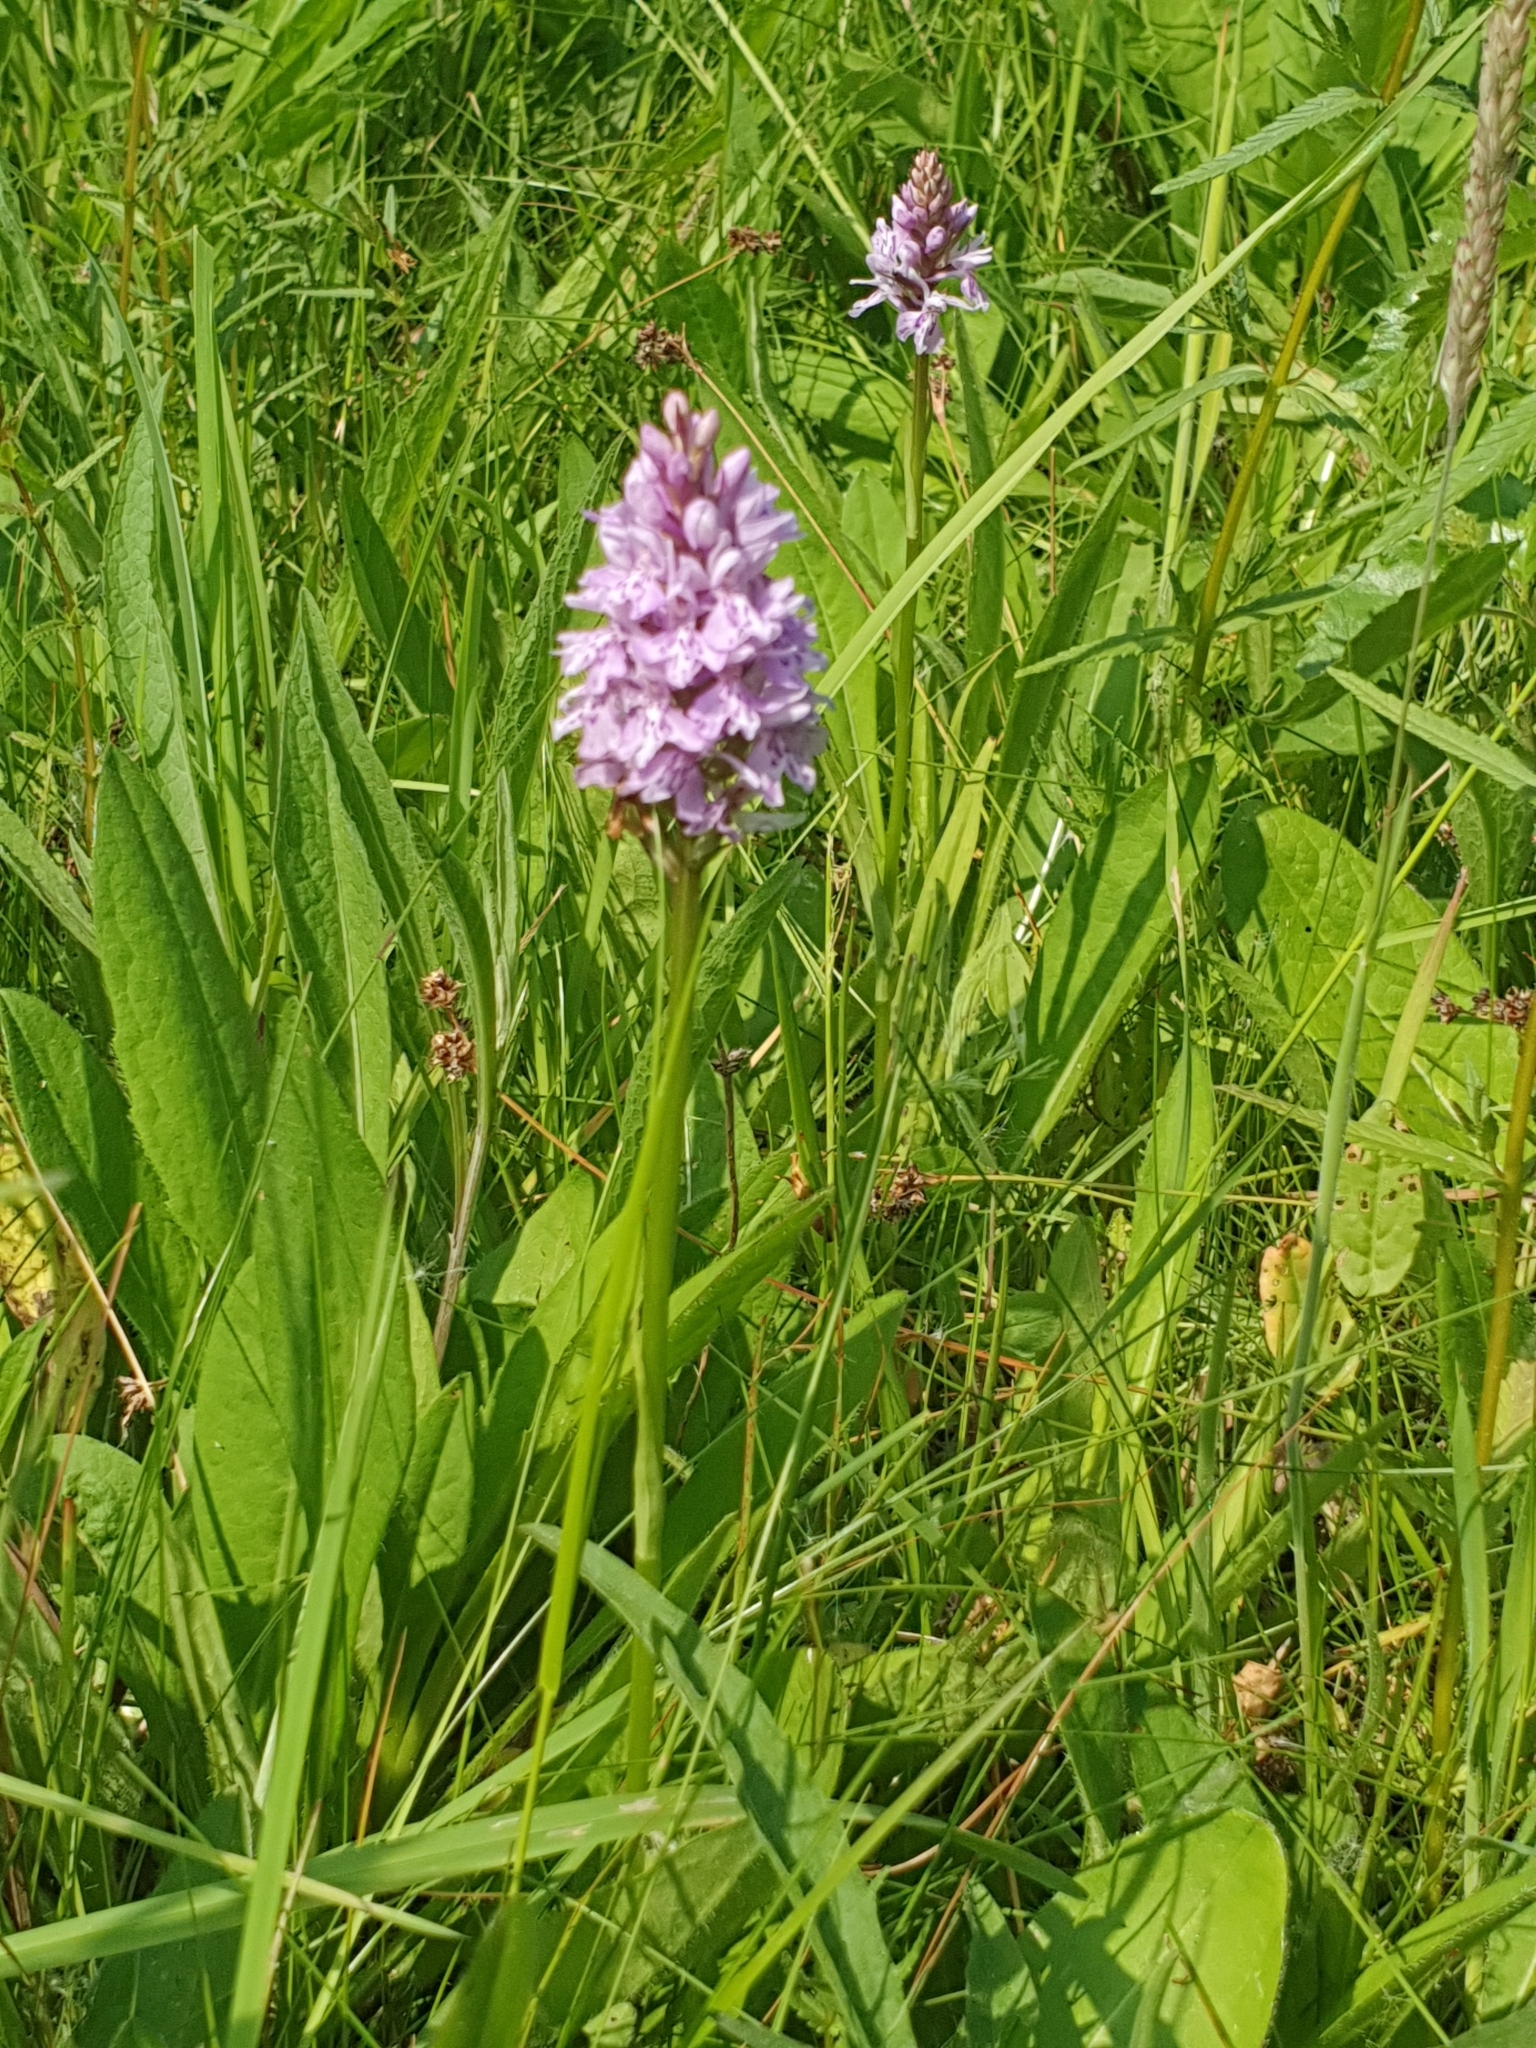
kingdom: Plantae
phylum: Tracheophyta
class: Liliopsida
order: Asparagales
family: Orchidaceae
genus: Dactylorhiza
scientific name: Dactylorhiza maculata
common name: Heath spotted-orchid
